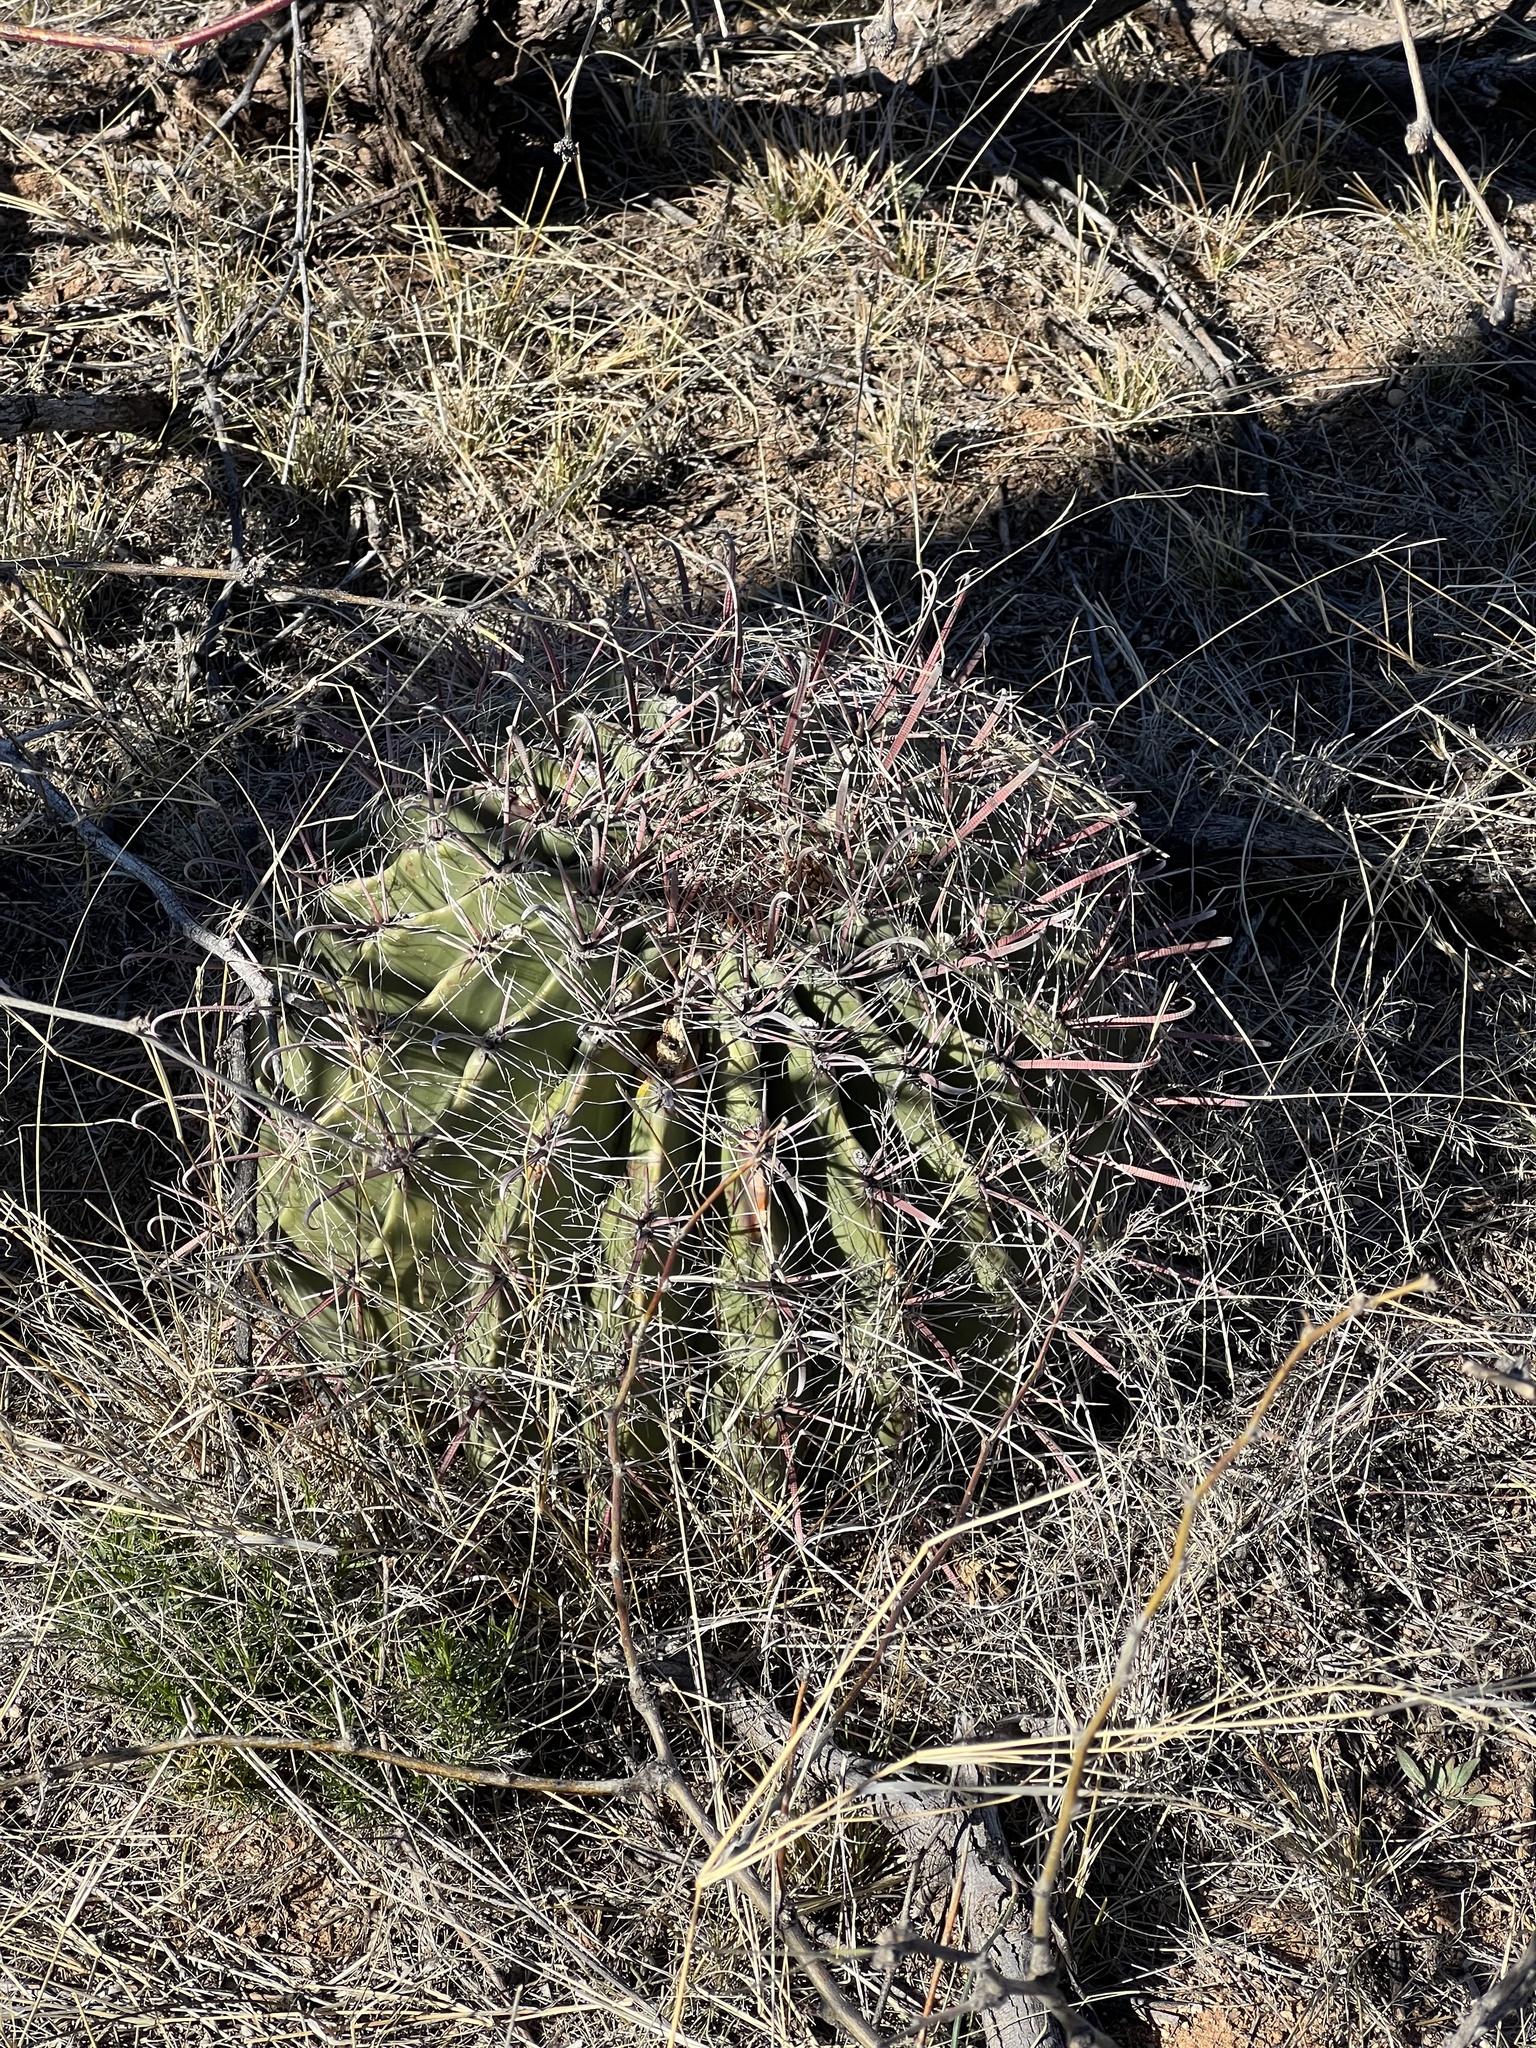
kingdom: Plantae
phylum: Tracheophyta
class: Magnoliopsida
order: Caryophyllales
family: Cactaceae
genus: Ferocactus
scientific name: Ferocactus wislizeni
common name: Candy barrel cactus
